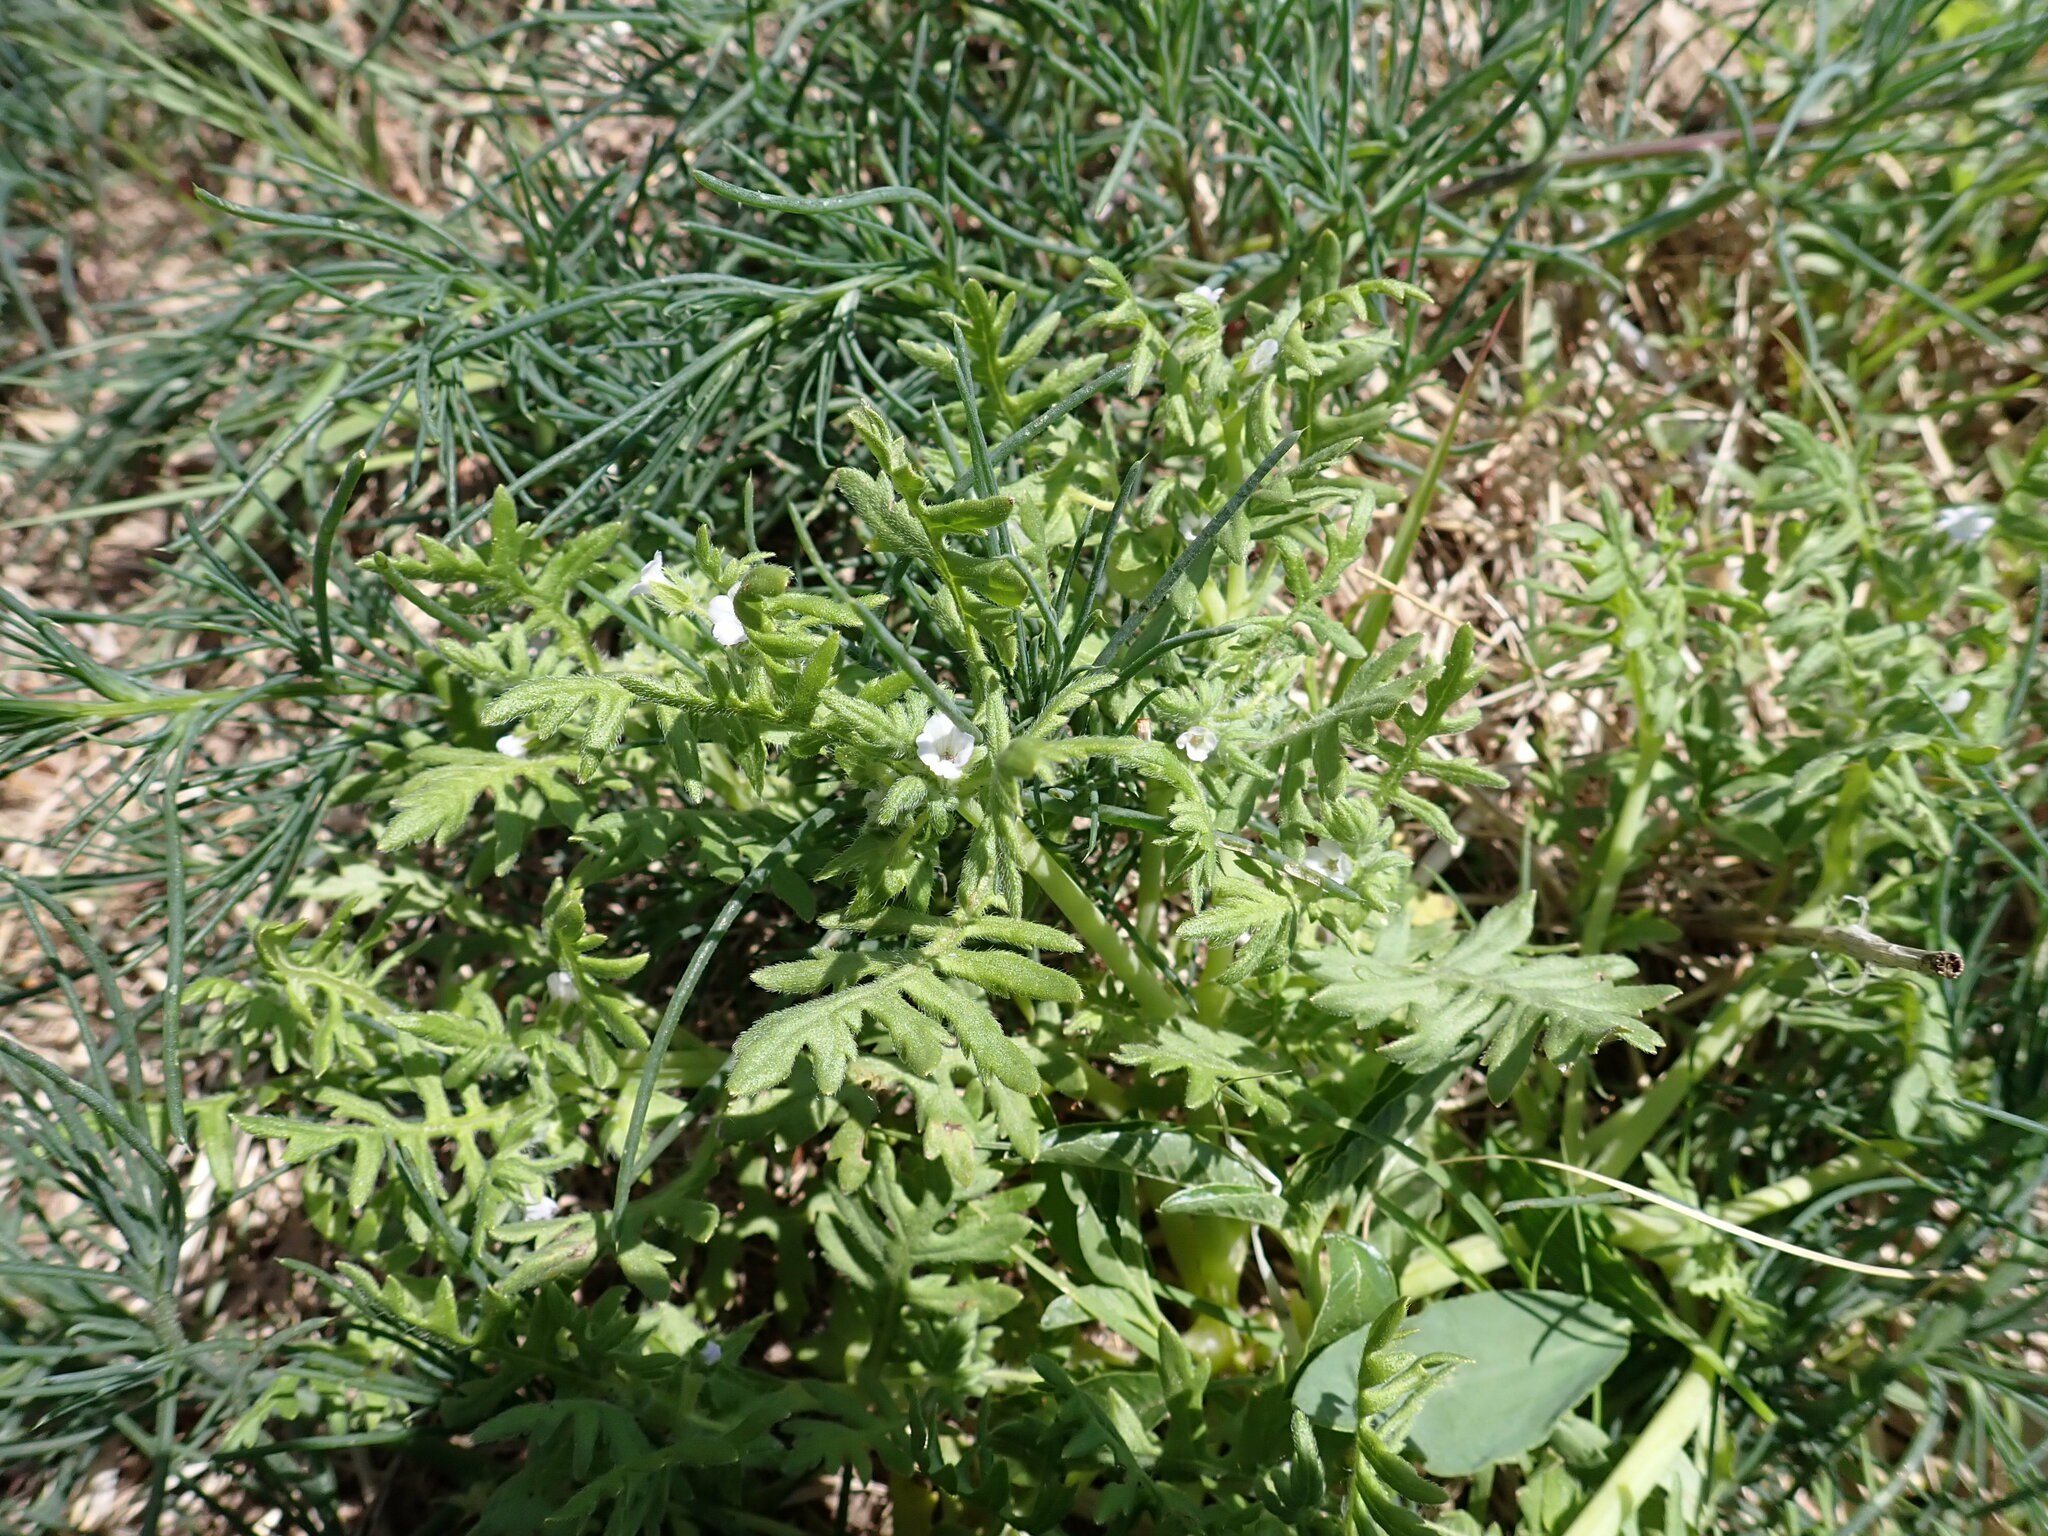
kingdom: Plantae
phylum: Tracheophyta
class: Magnoliopsida
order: Boraginales
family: Hydrophyllaceae
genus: Ellisia
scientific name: Ellisia nyctelea
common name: Aunt lucy
